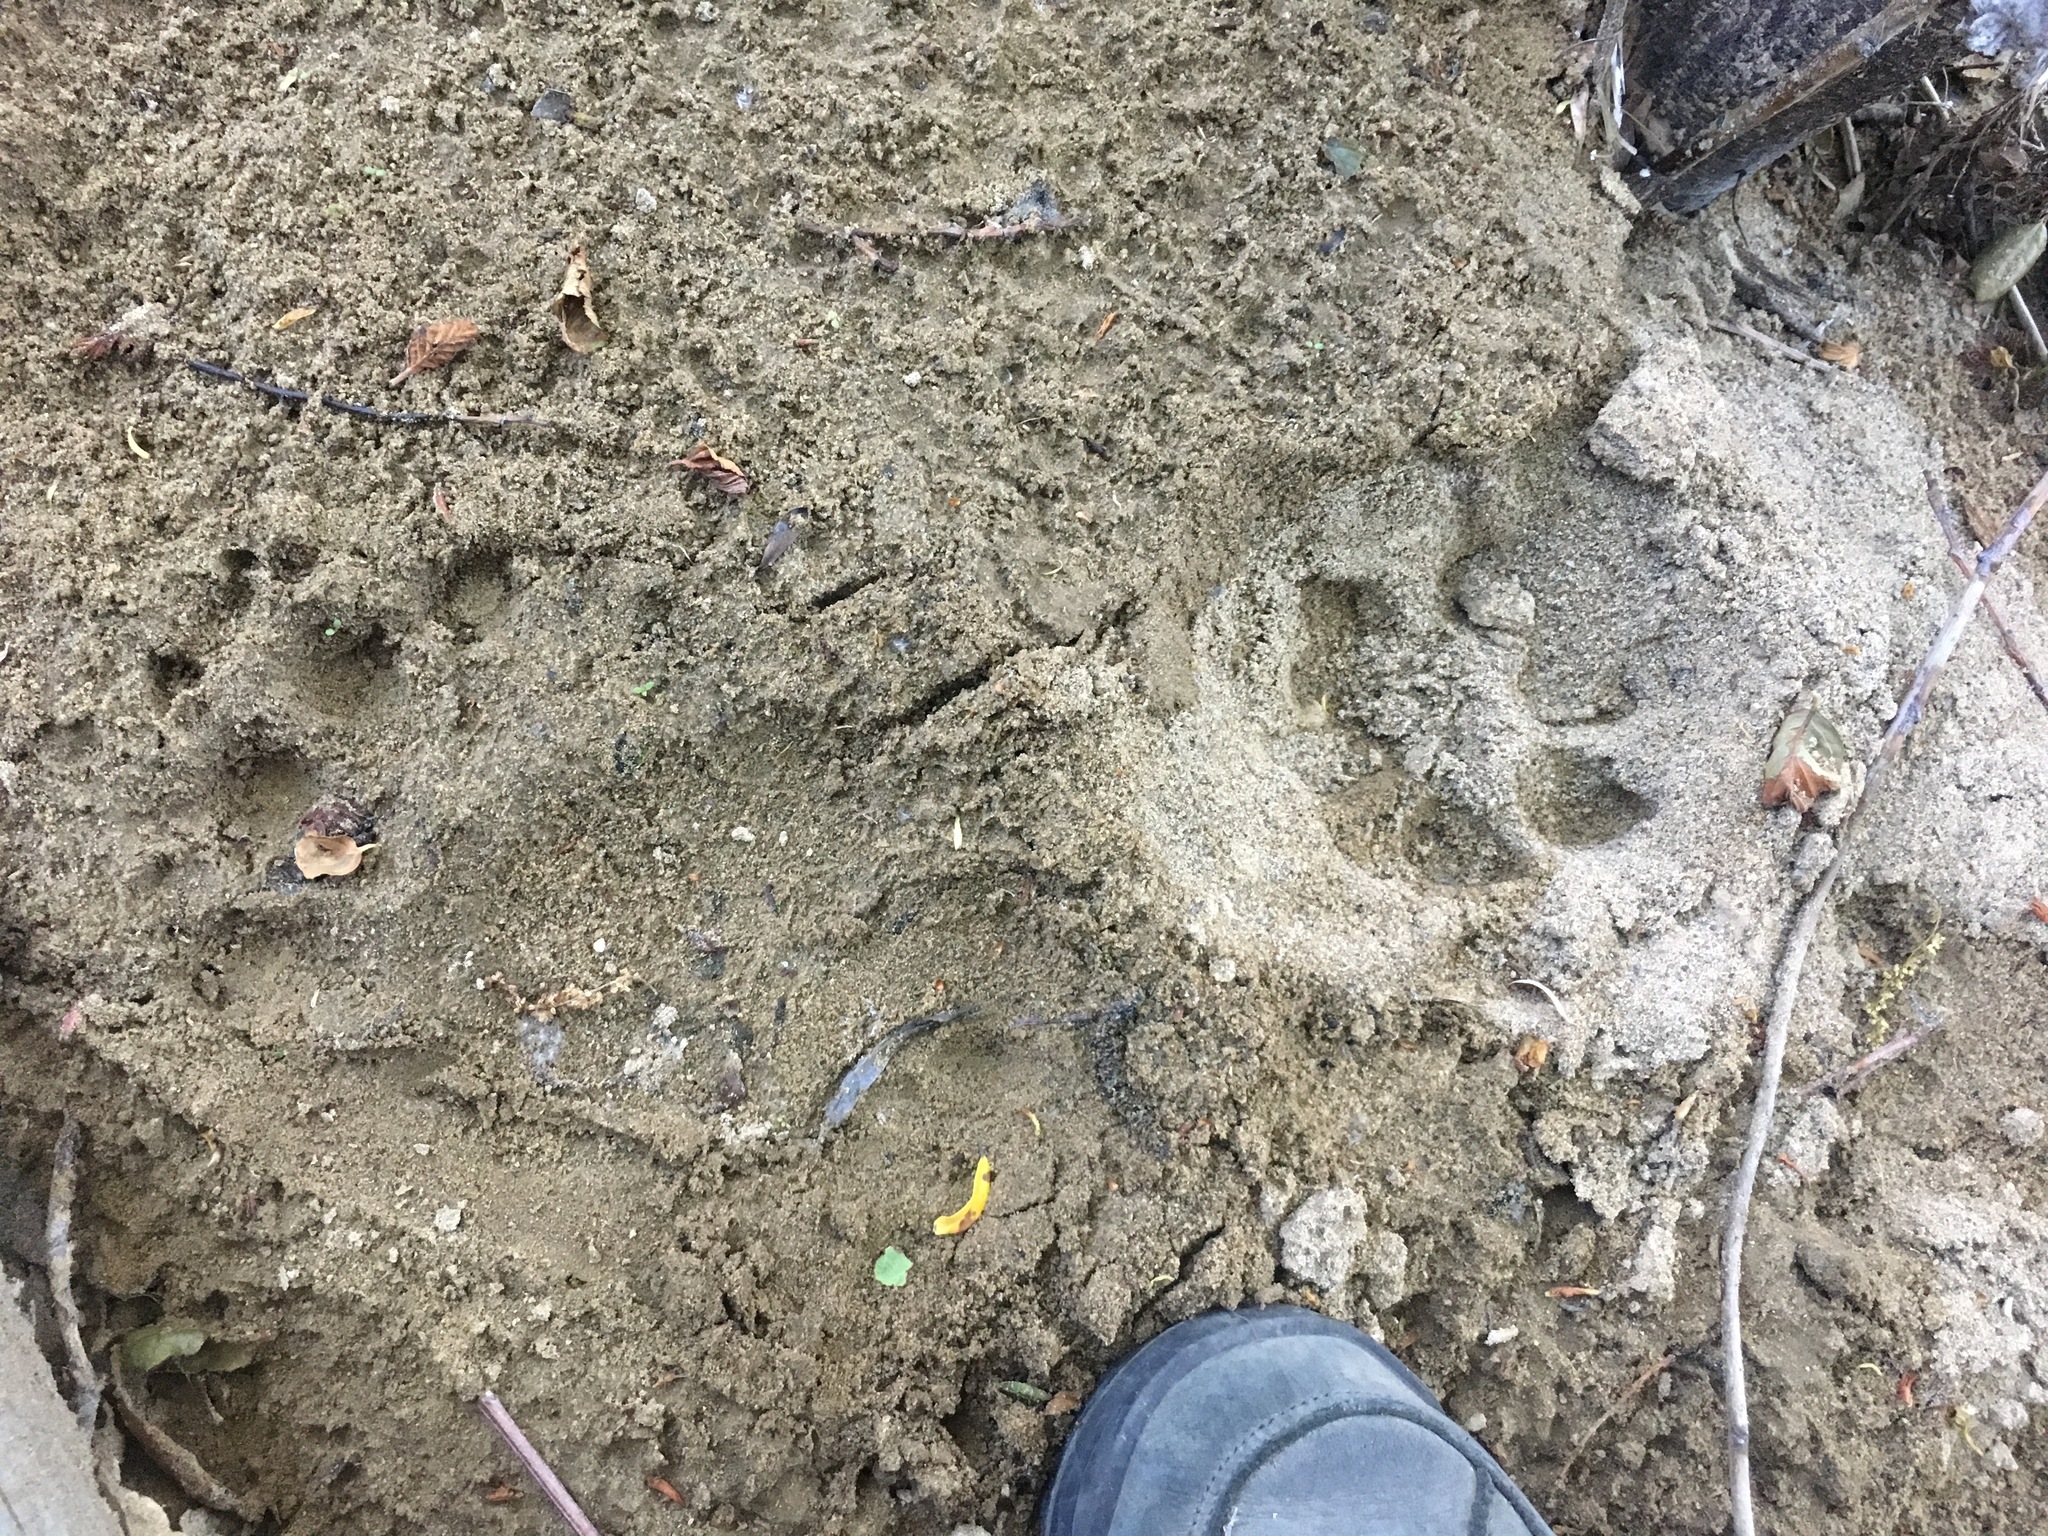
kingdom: Animalia
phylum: Chordata
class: Mammalia
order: Carnivora
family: Ursidae
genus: Ursus
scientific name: Ursus americanus
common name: American black bear
